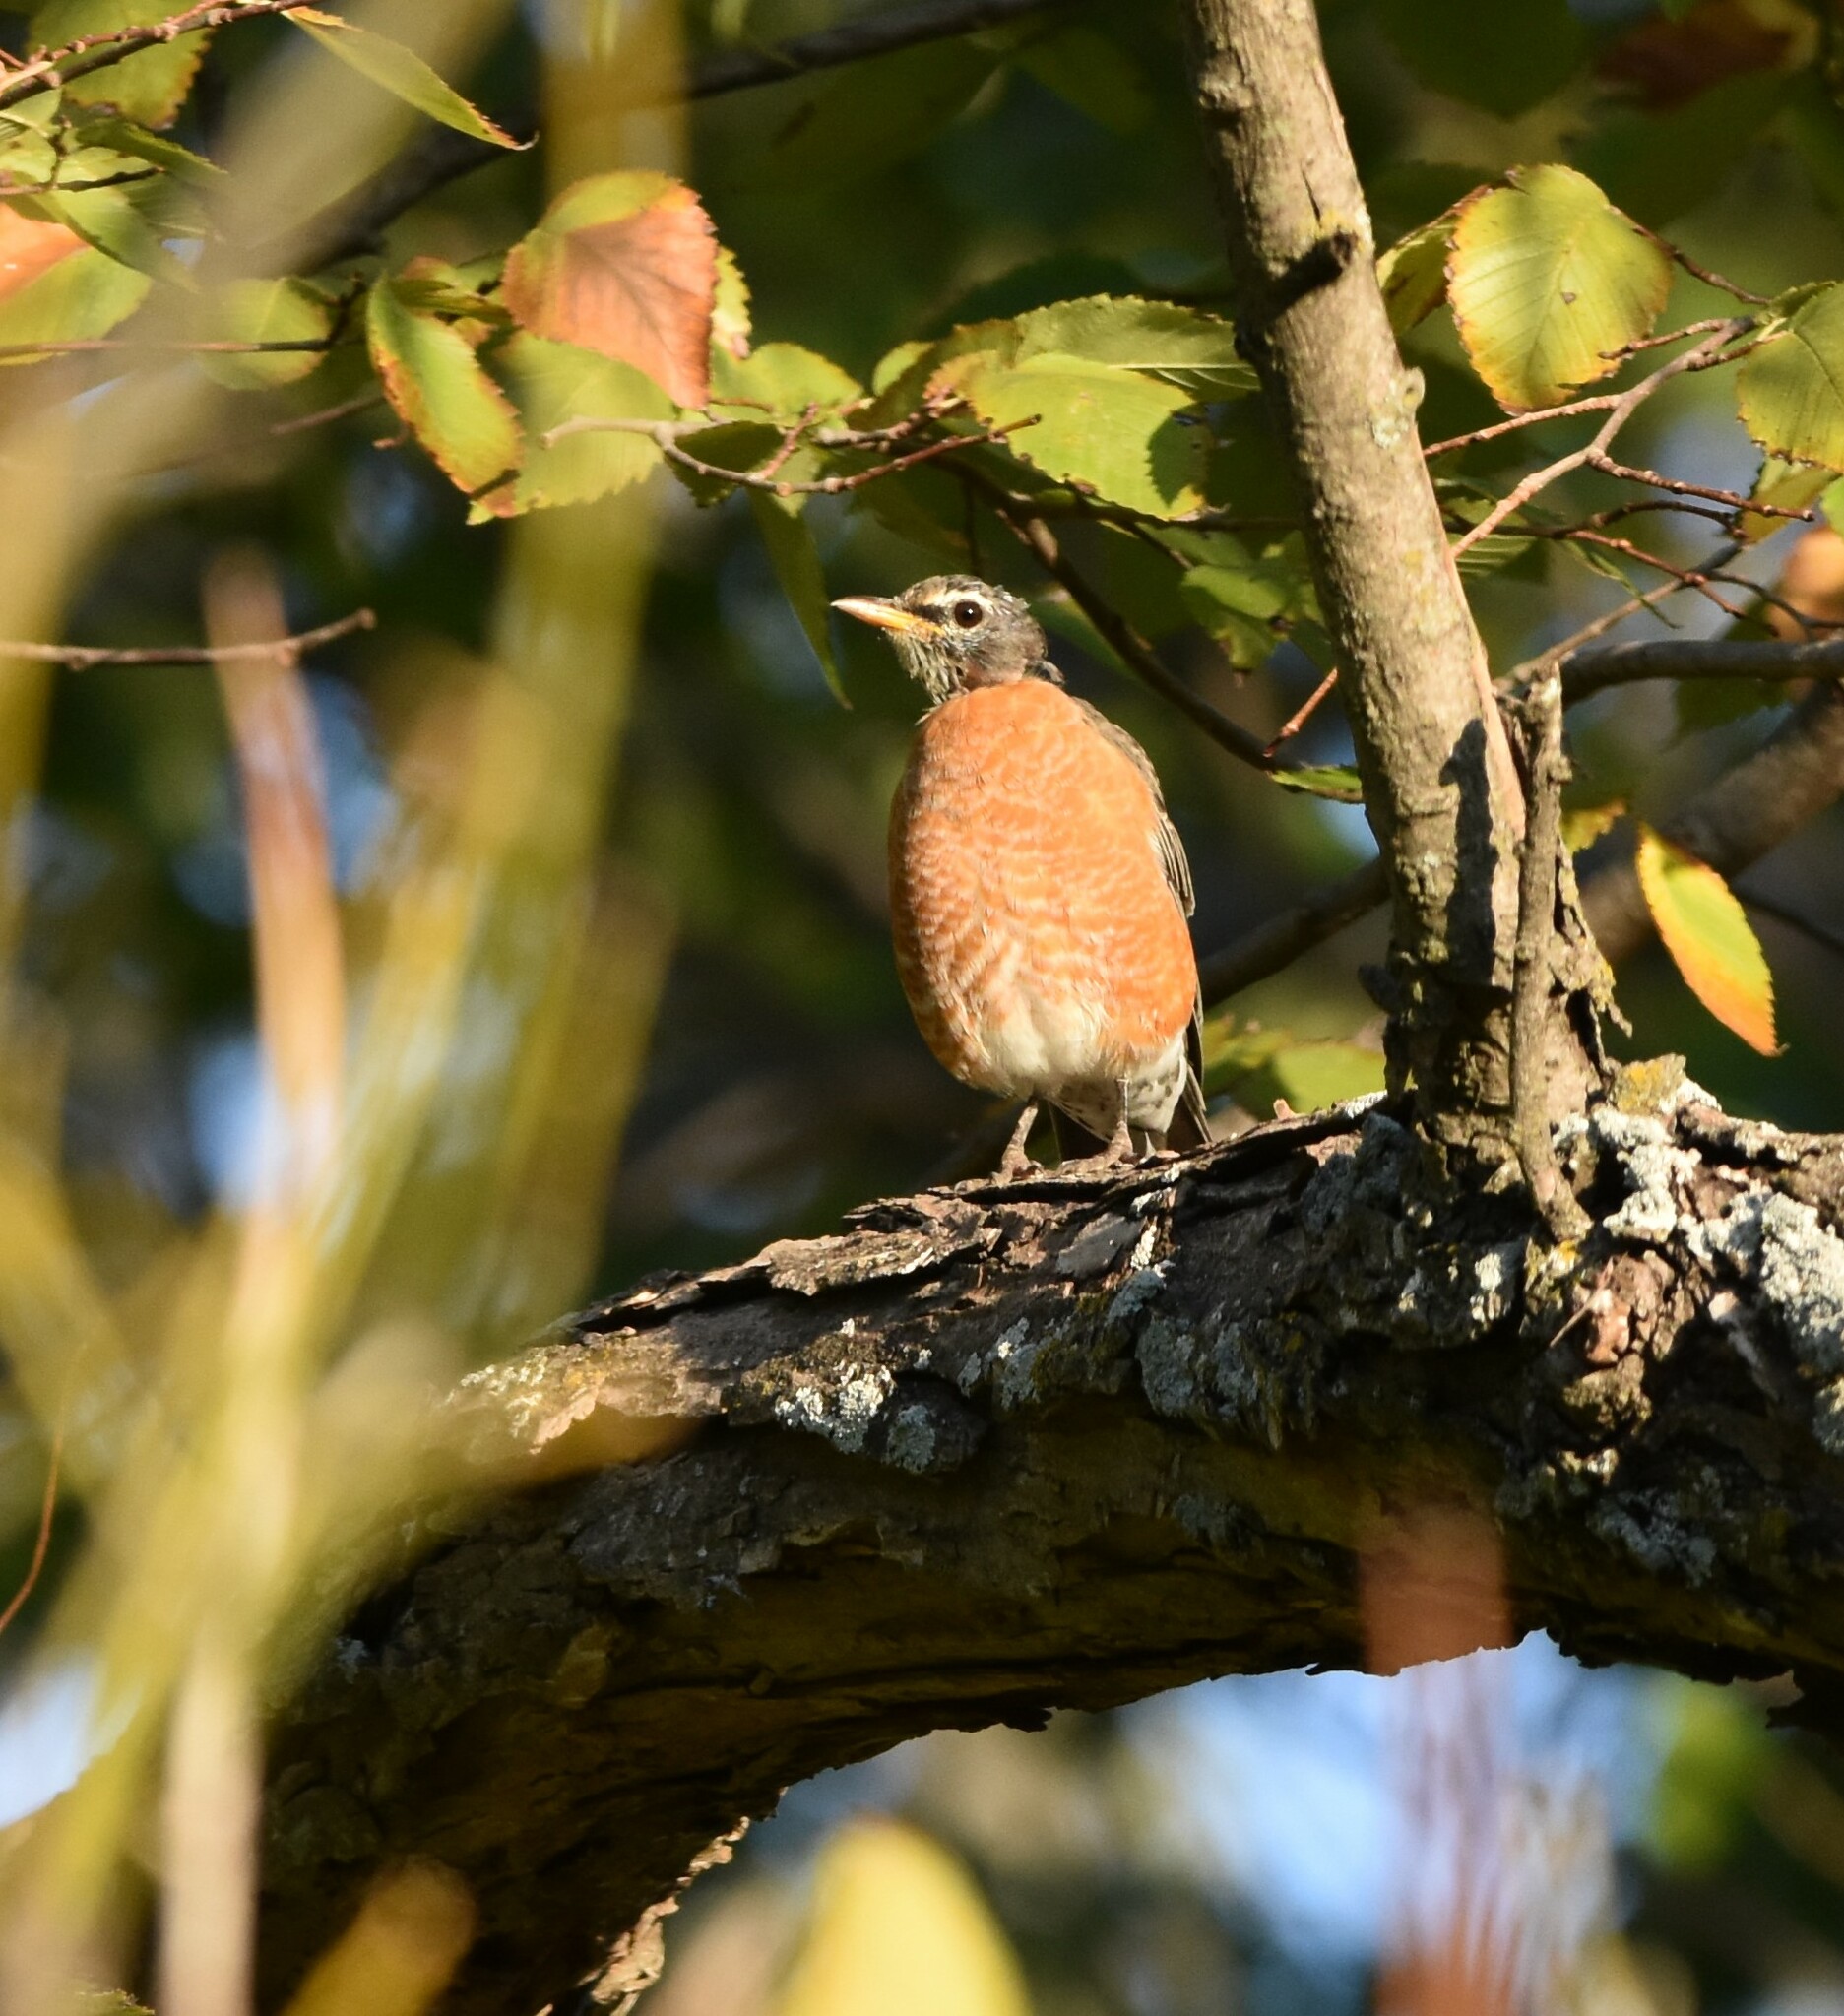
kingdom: Animalia
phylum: Chordata
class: Aves
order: Passeriformes
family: Turdidae
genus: Turdus
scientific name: Turdus migratorius
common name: American robin
